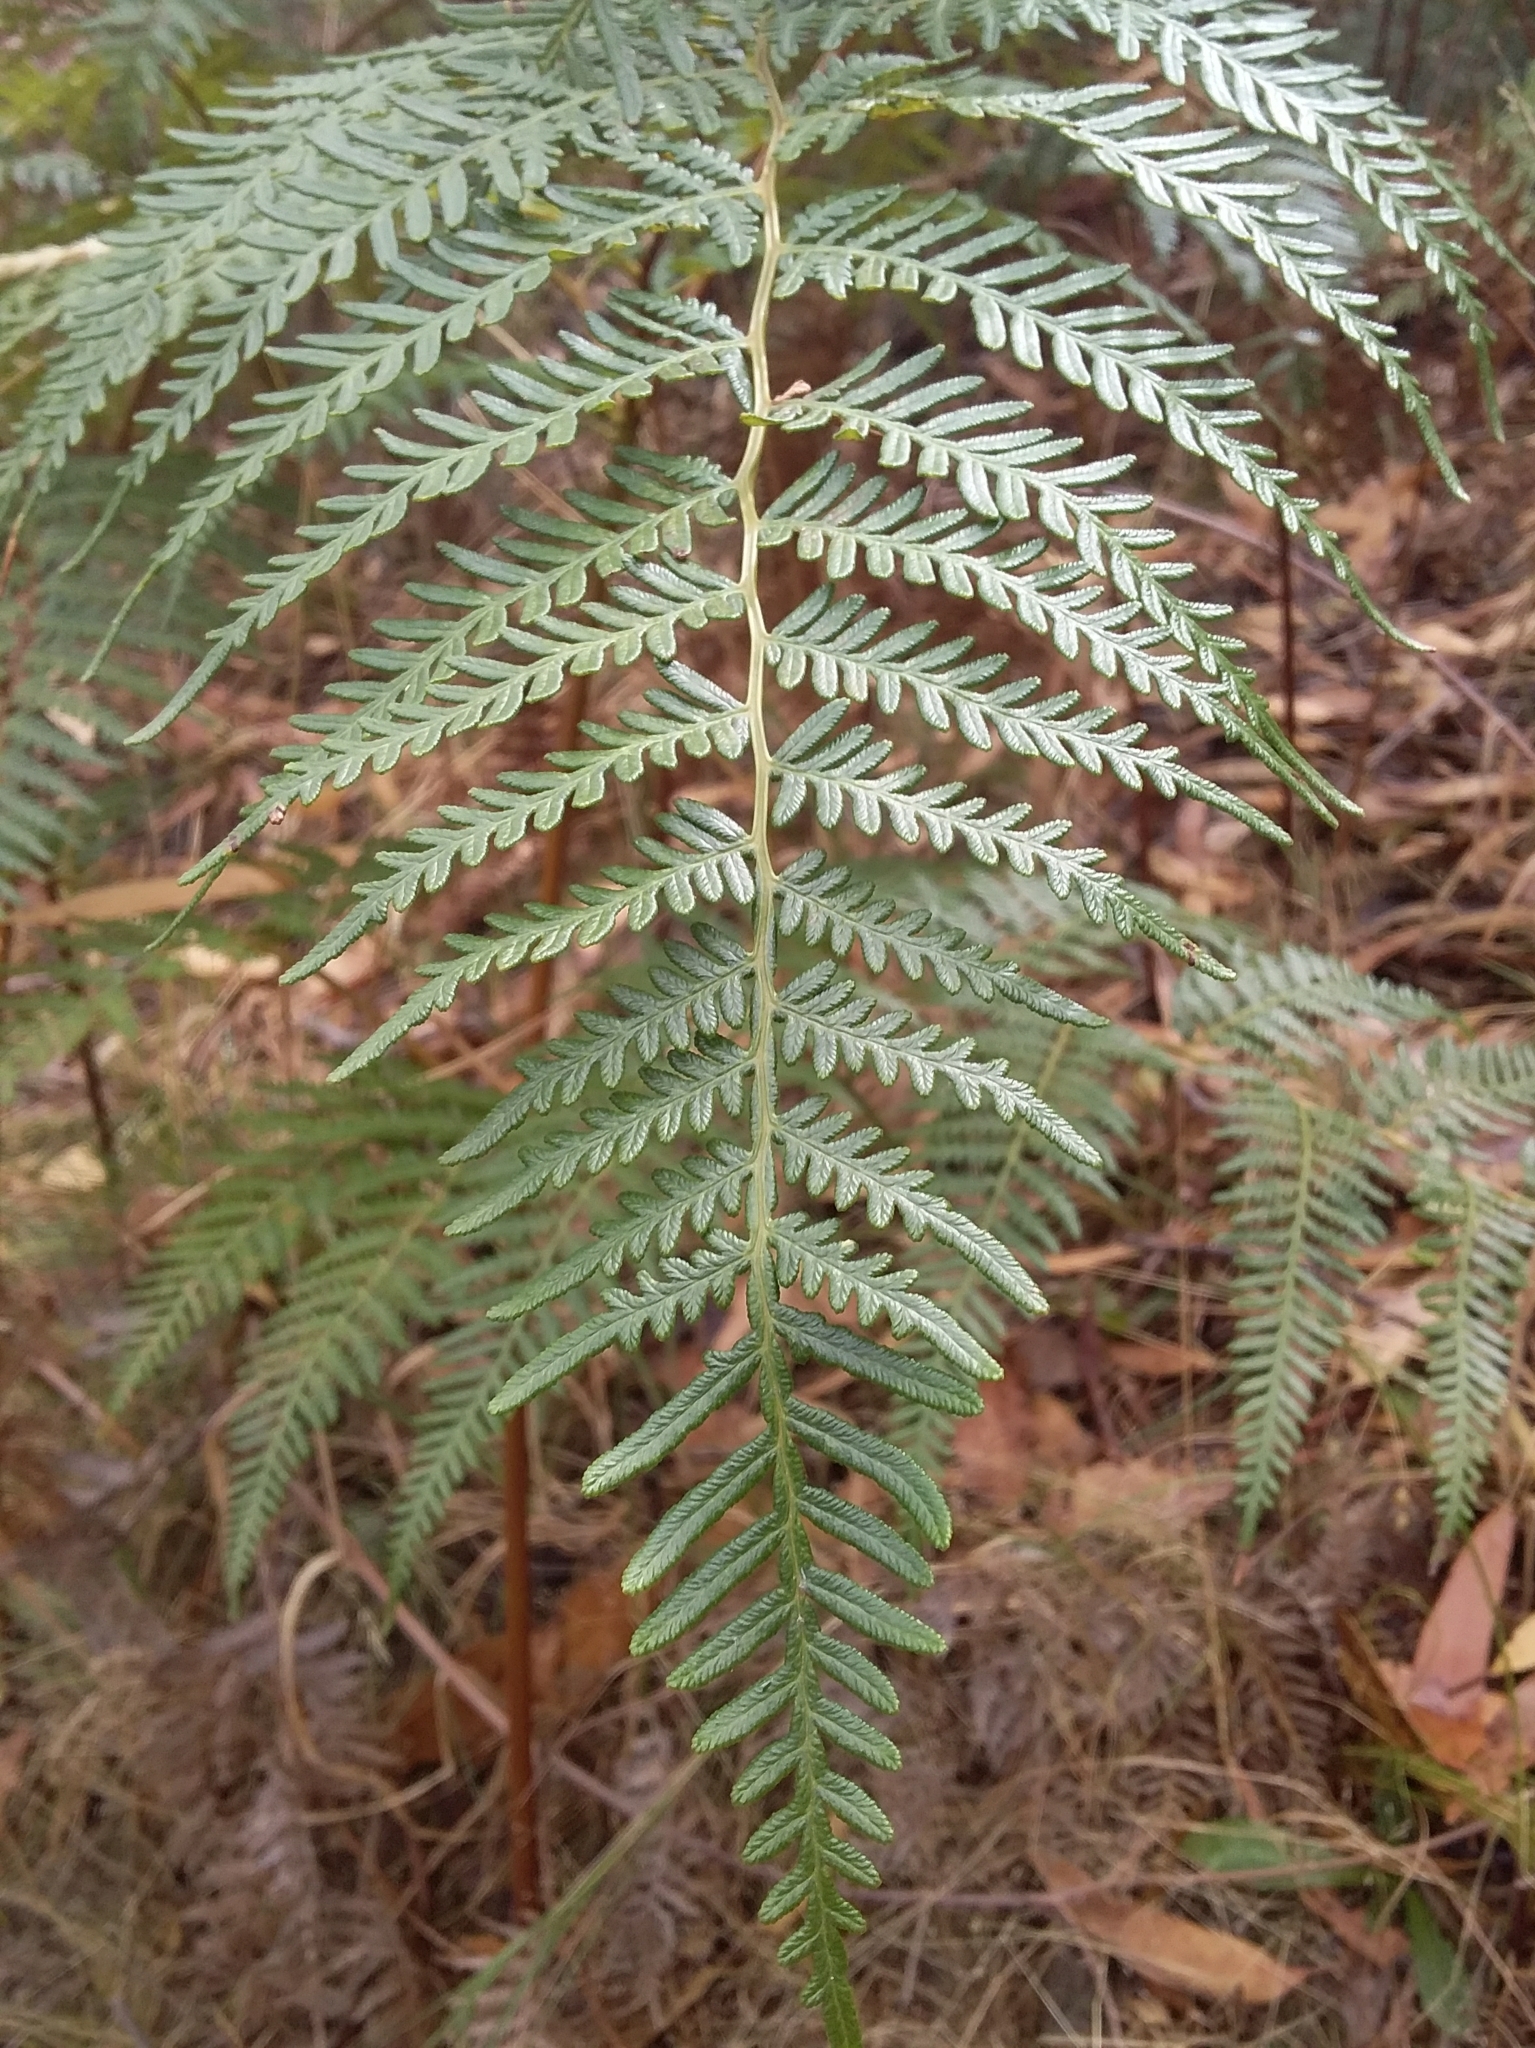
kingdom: Plantae
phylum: Tracheophyta
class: Polypodiopsida
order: Polypodiales
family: Dennstaedtiaceae
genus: Pteridium
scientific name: Pteridium esculentum
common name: Bracken fern
